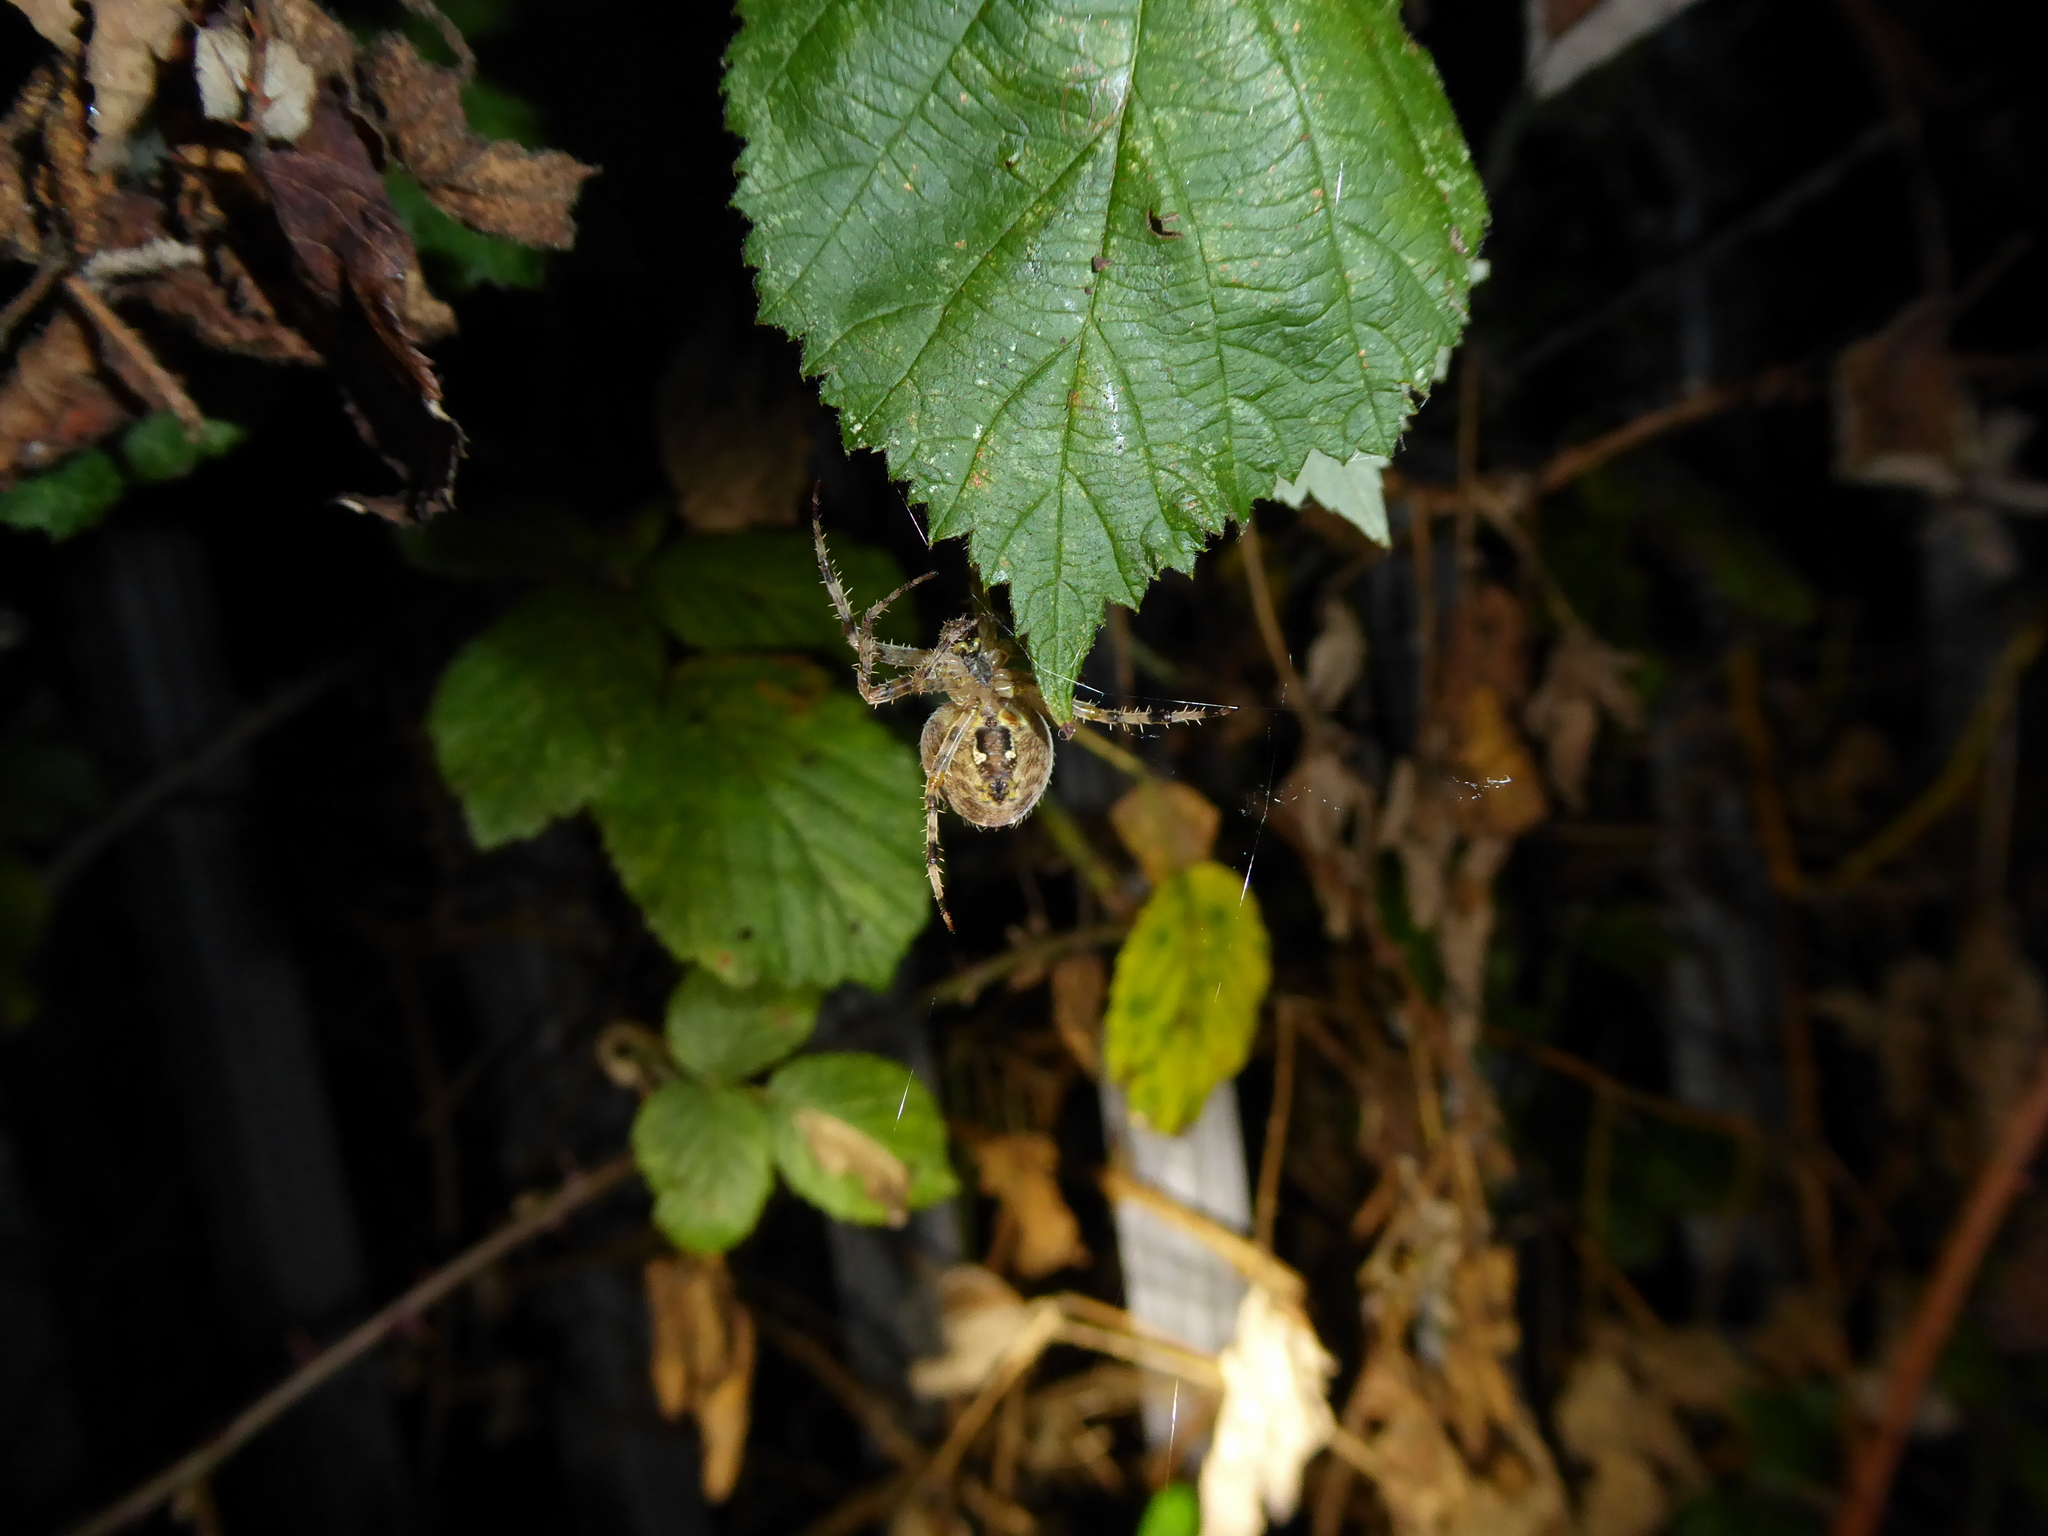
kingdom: Animalia
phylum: Arthropoda
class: Arachnida
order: Araneae
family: Araneidae
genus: Araneus
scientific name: Araneus diadematus
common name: Cross orbweaver
